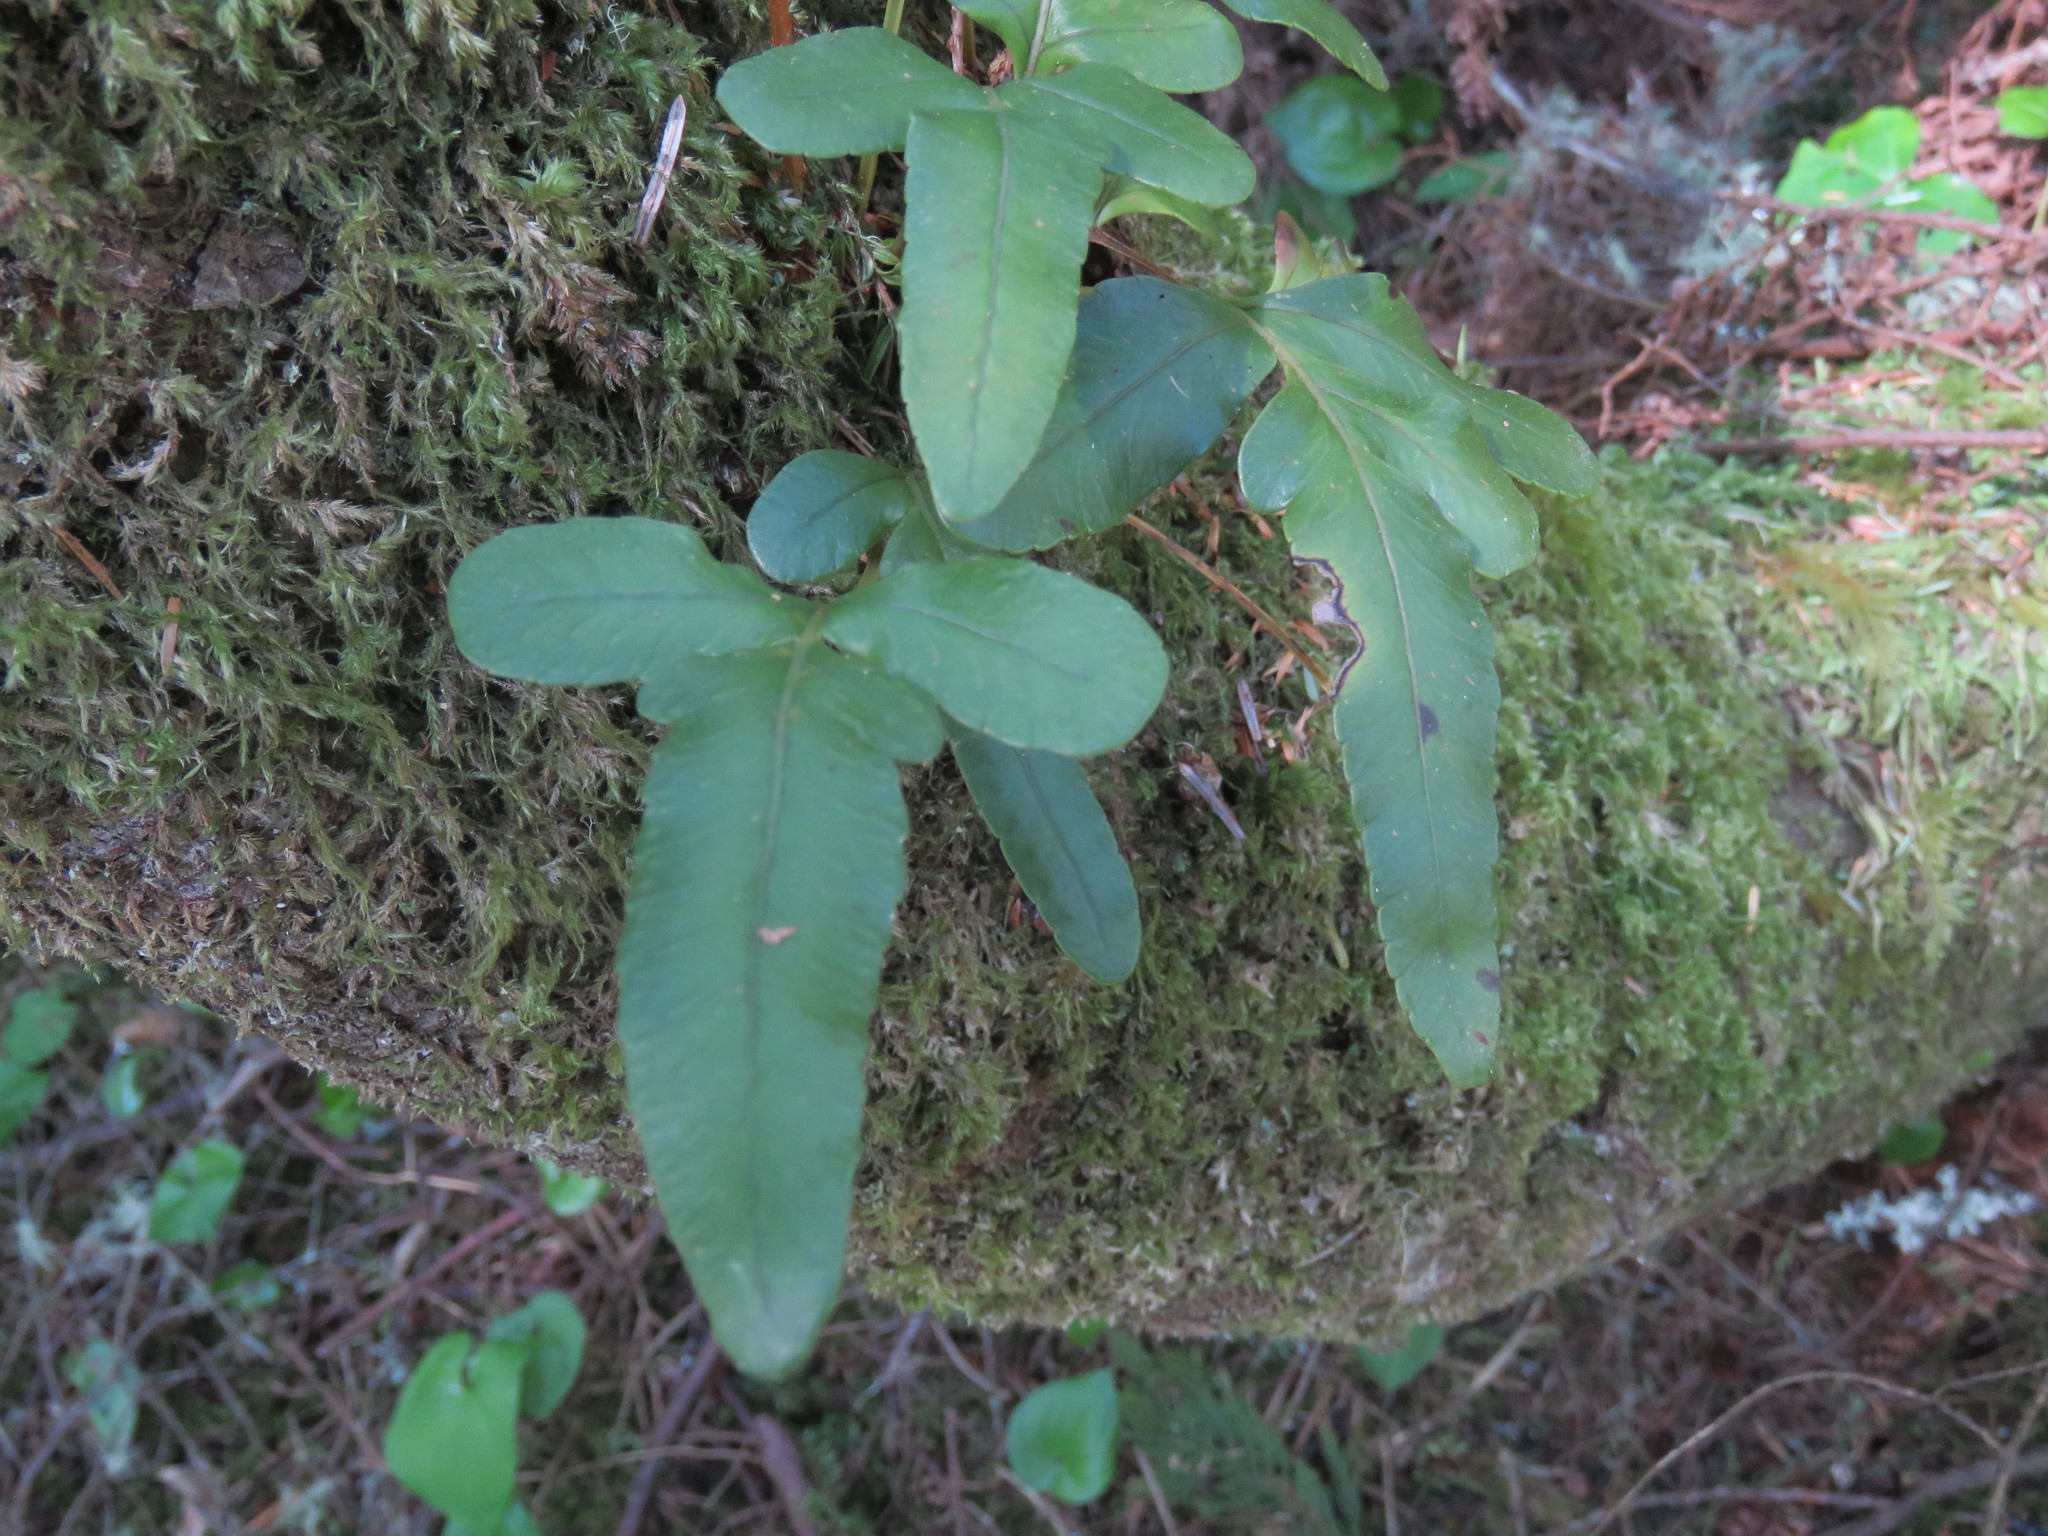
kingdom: Plantae
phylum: Tracheophyta
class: Polypodiopsida
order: Polypodiales
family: Polypodiaceae
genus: Polypodium
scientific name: Polypodium scouleri
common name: Scouler's polypody
